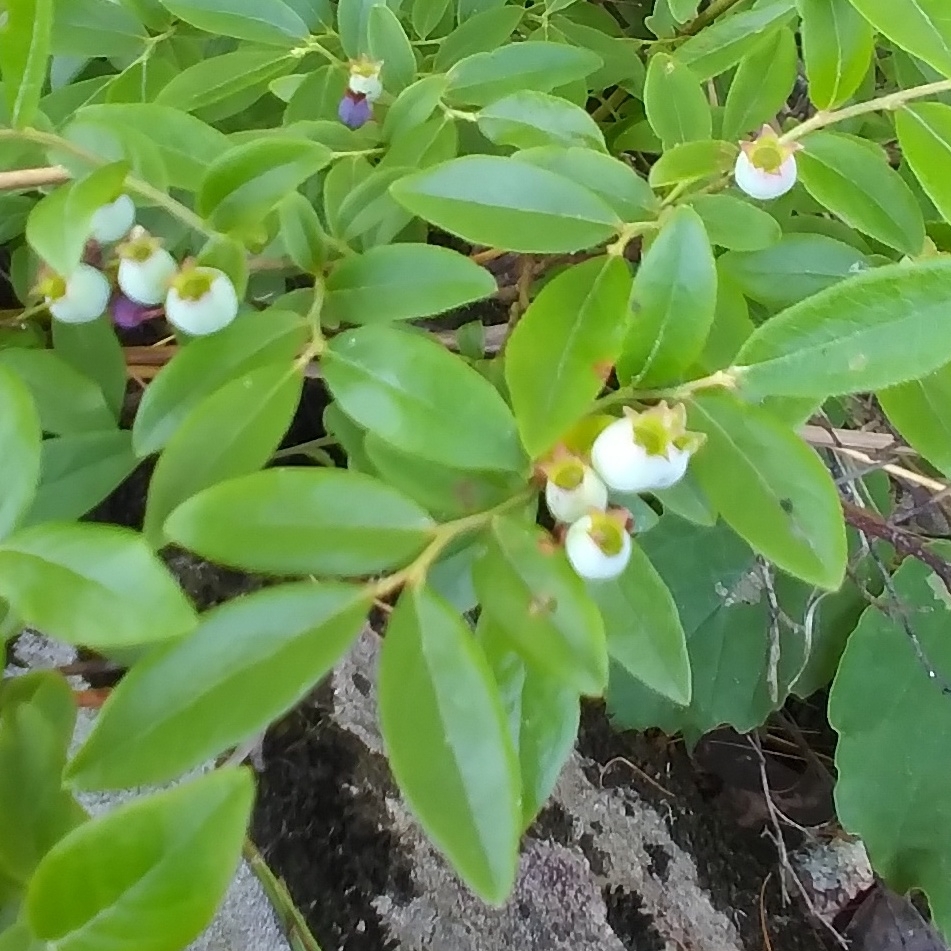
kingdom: Plantae
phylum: Tracheophyta
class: Magnoliopsida
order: Ericales
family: Ericaceae
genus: Vaccinium
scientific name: Vaccinium angustifolium
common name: Early lowbush blueberry
